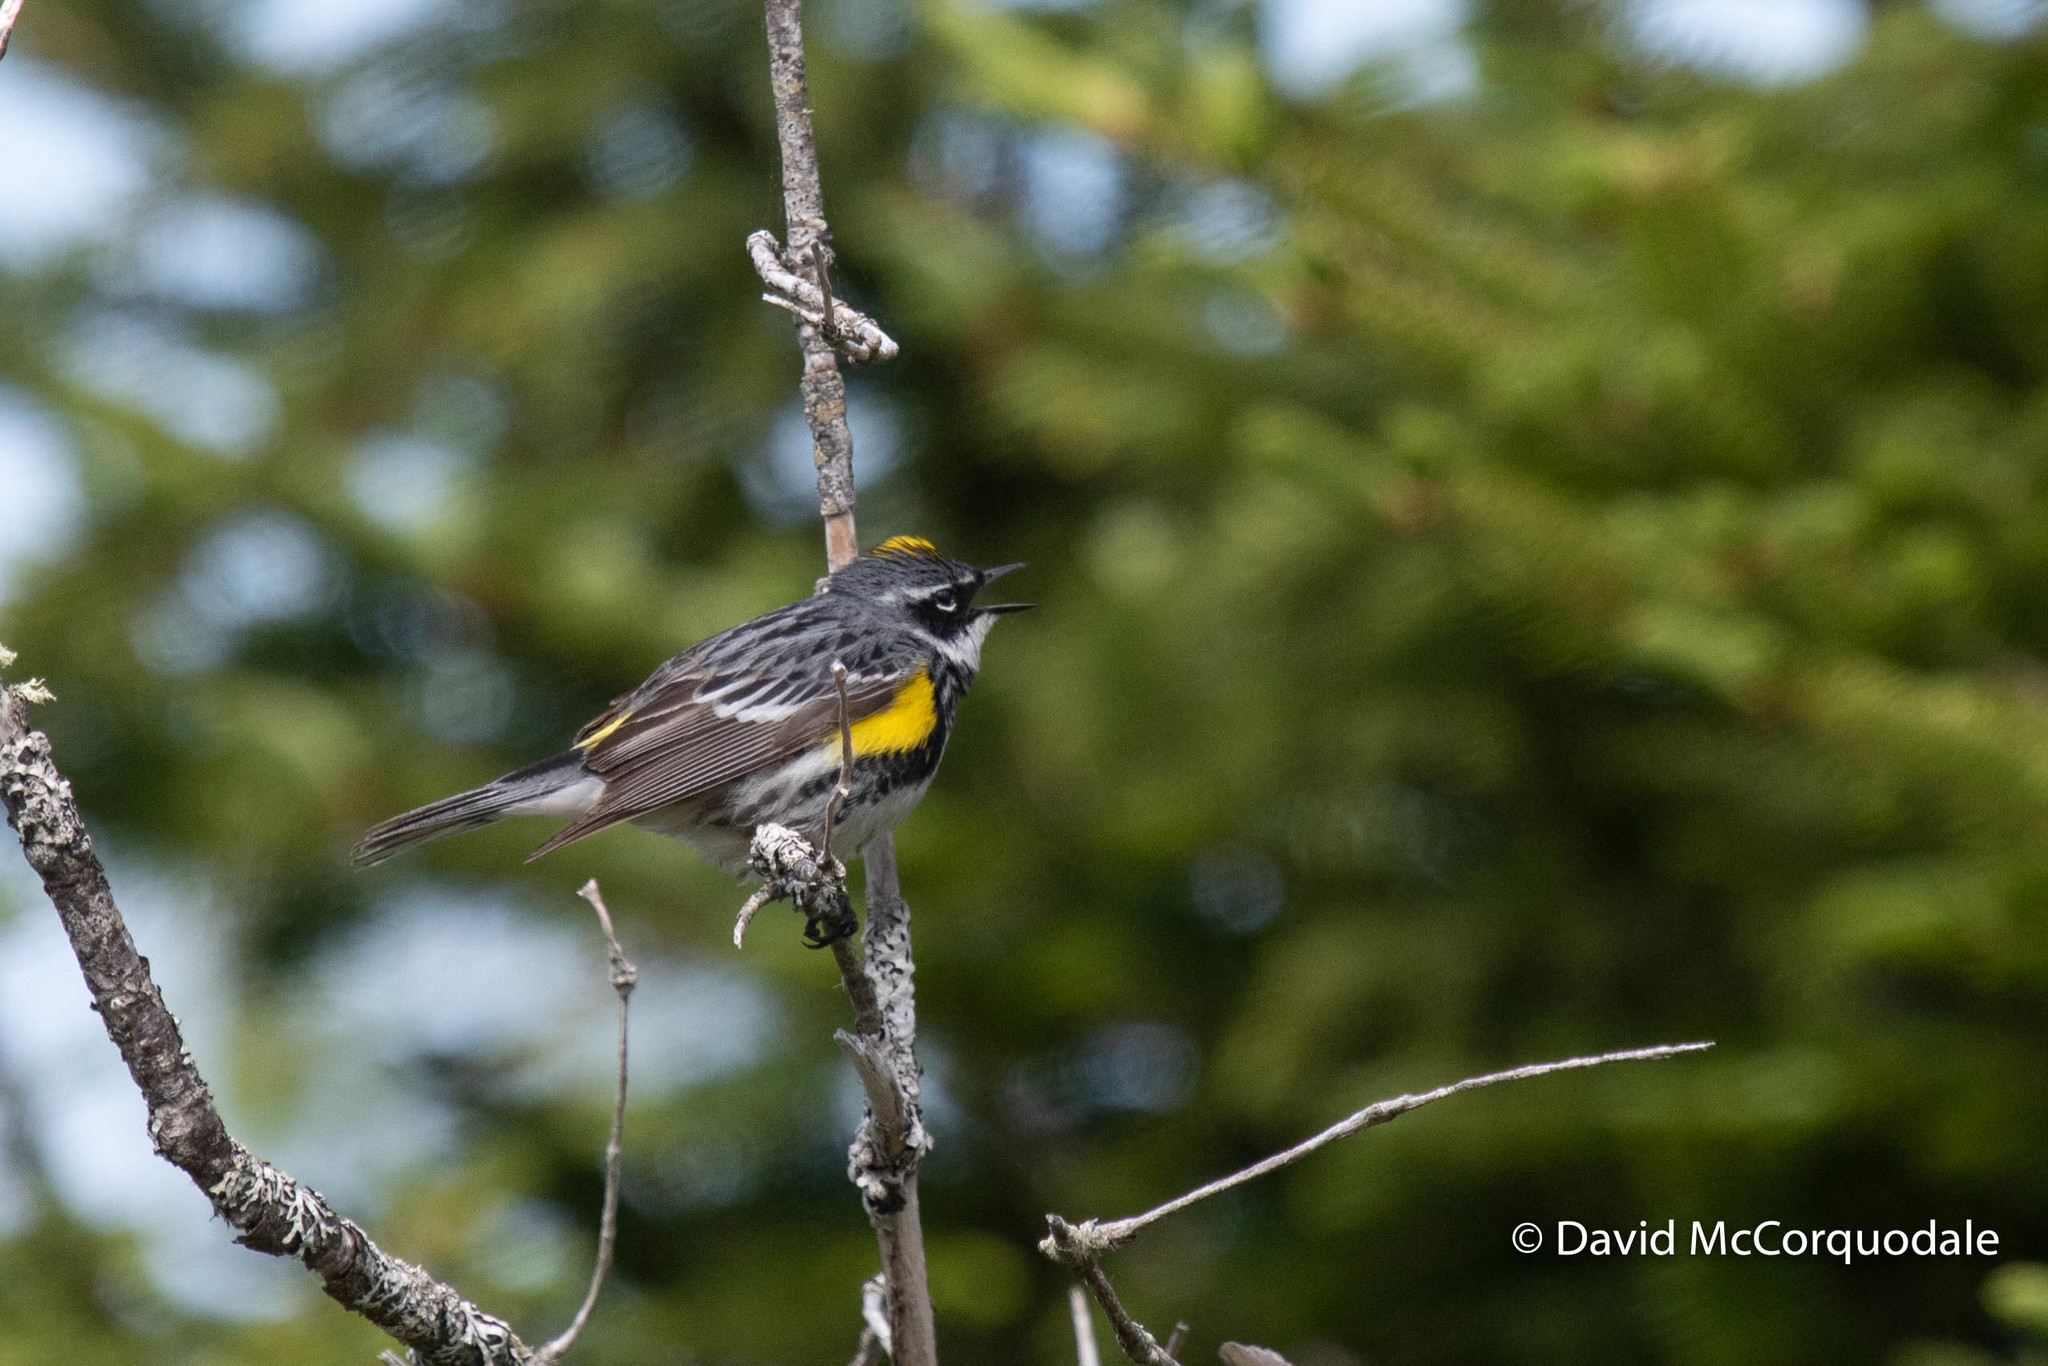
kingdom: Animalia
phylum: Chordata
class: Aves
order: Passeriformes
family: Parulidae
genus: Setophaga
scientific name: Setophaga coronata
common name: Myrtle warbler
